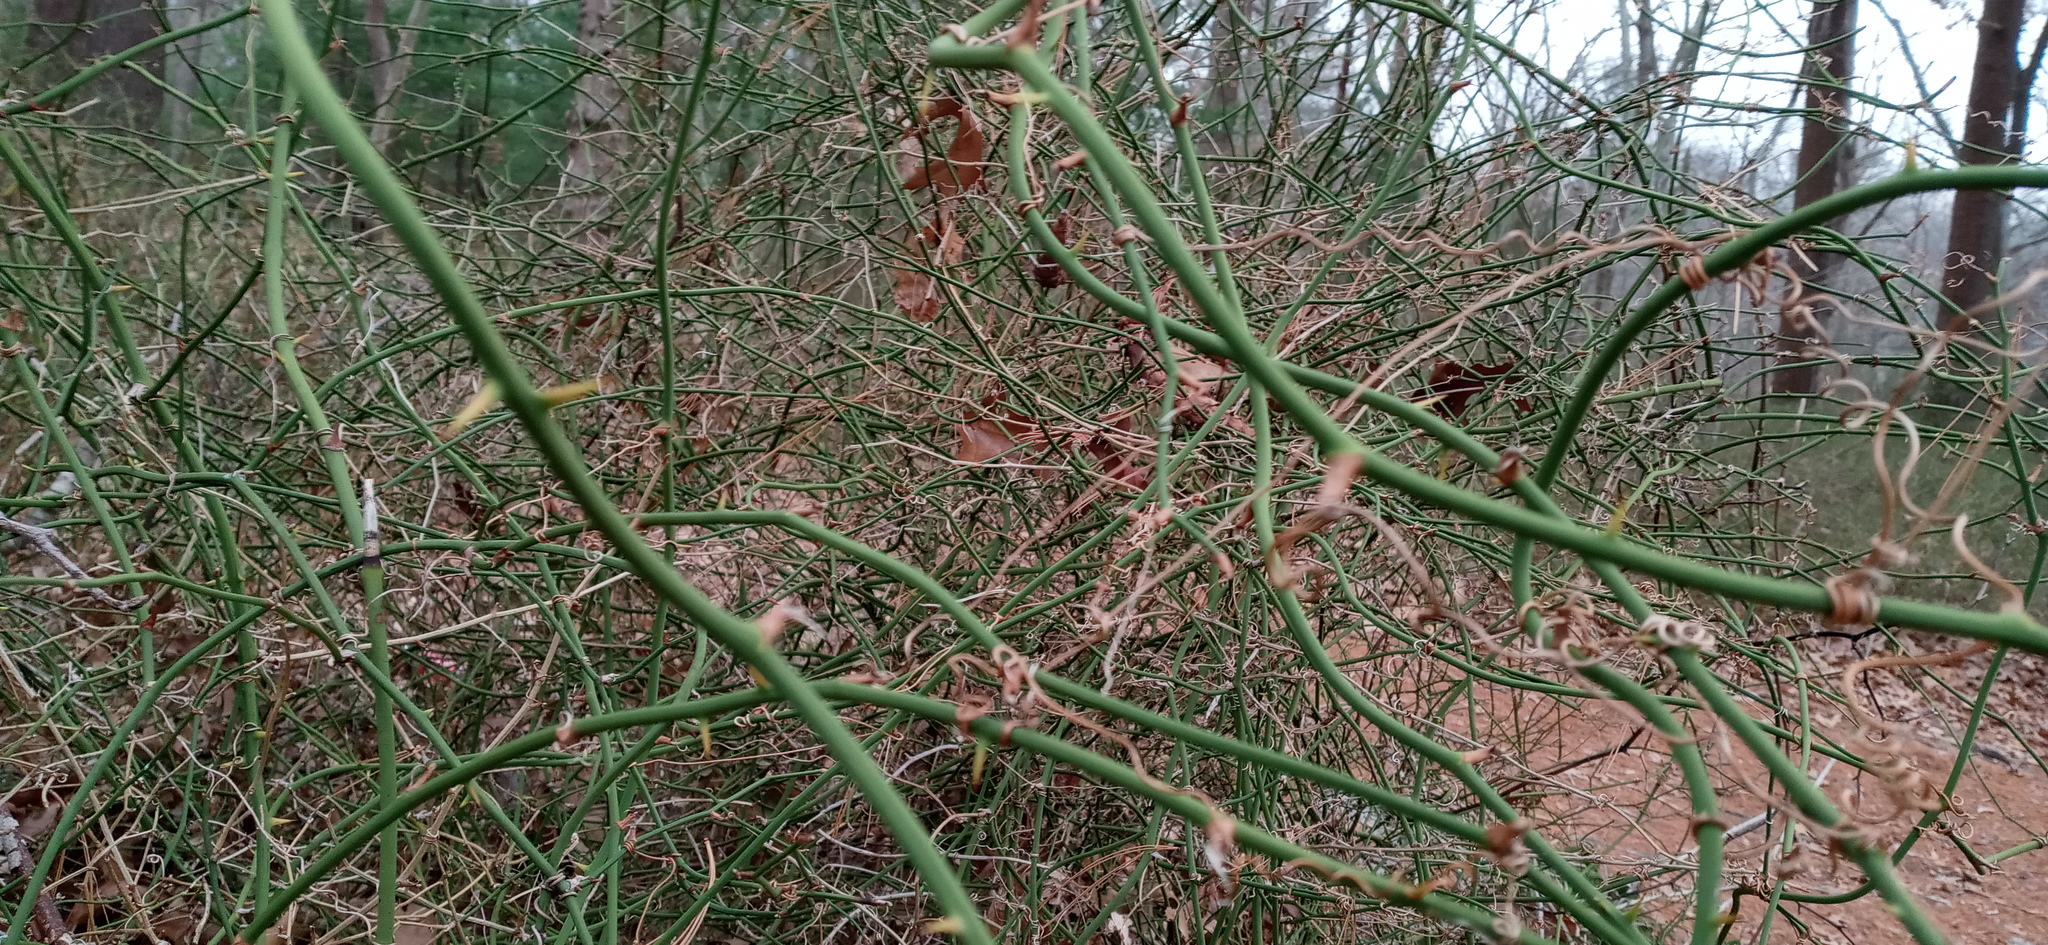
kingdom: Plantae
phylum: Tracheophyta
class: Liliopsida
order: Liliales
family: Smilacaceae
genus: Smilax
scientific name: Smilax rotundifolia
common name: Bullbriar
